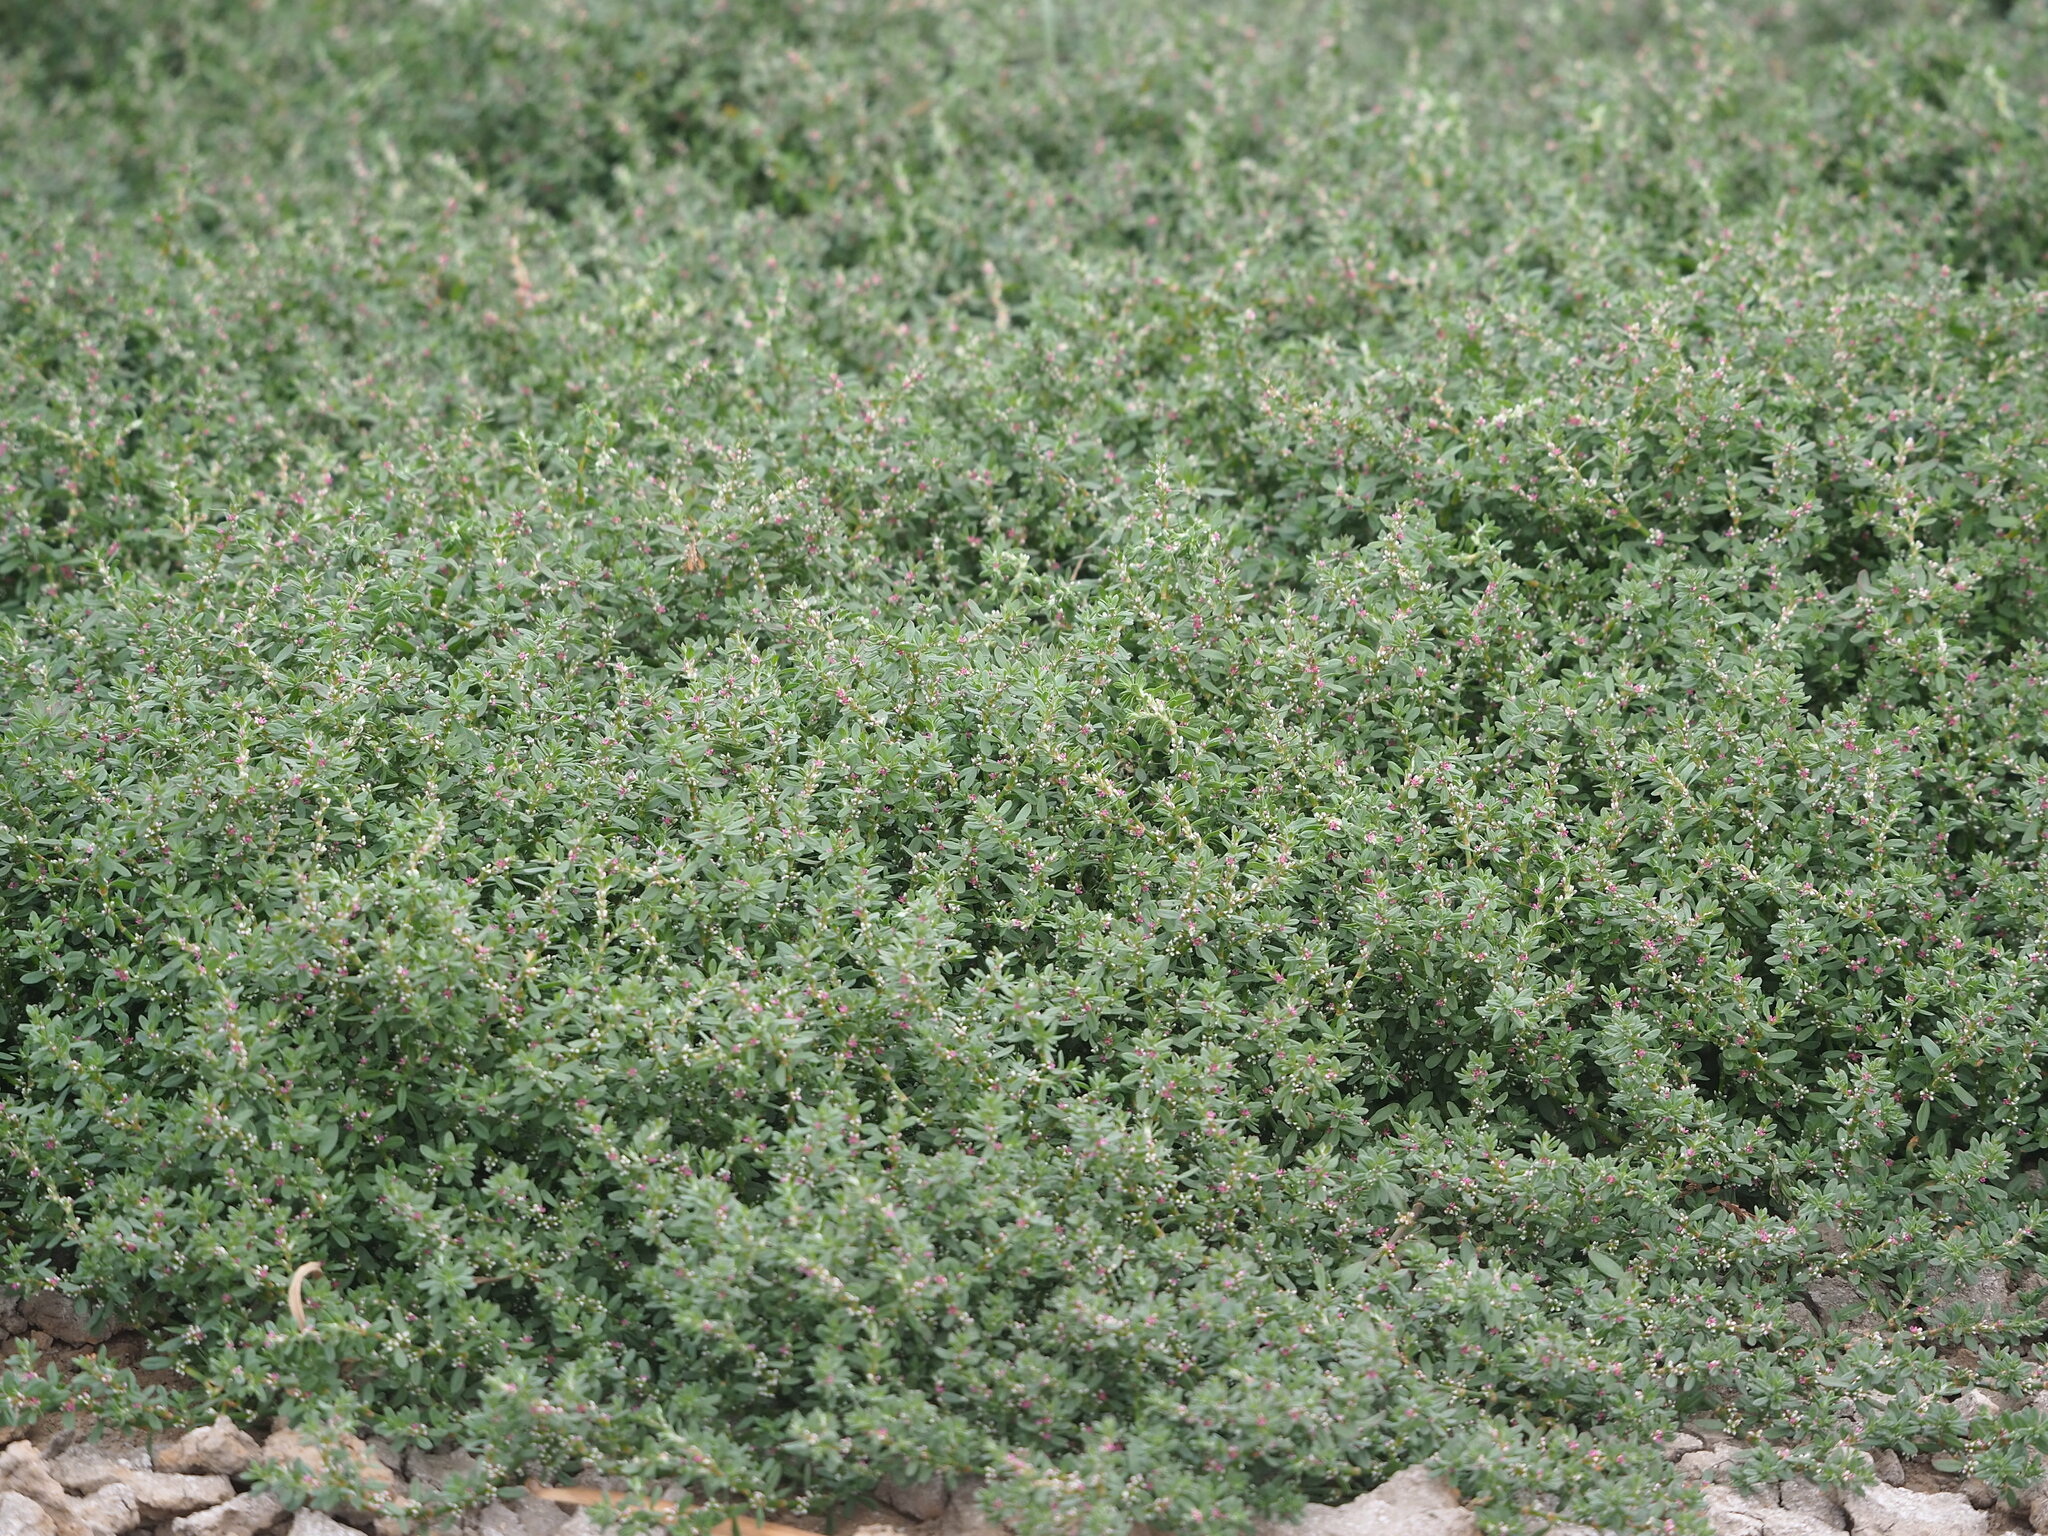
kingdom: Plantae
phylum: Tracheophyta
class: Magnoliopsida
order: Caryophyllales
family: Polygonaceae
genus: Polygonum
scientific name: Polygonum plebeium
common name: Common knotweed
